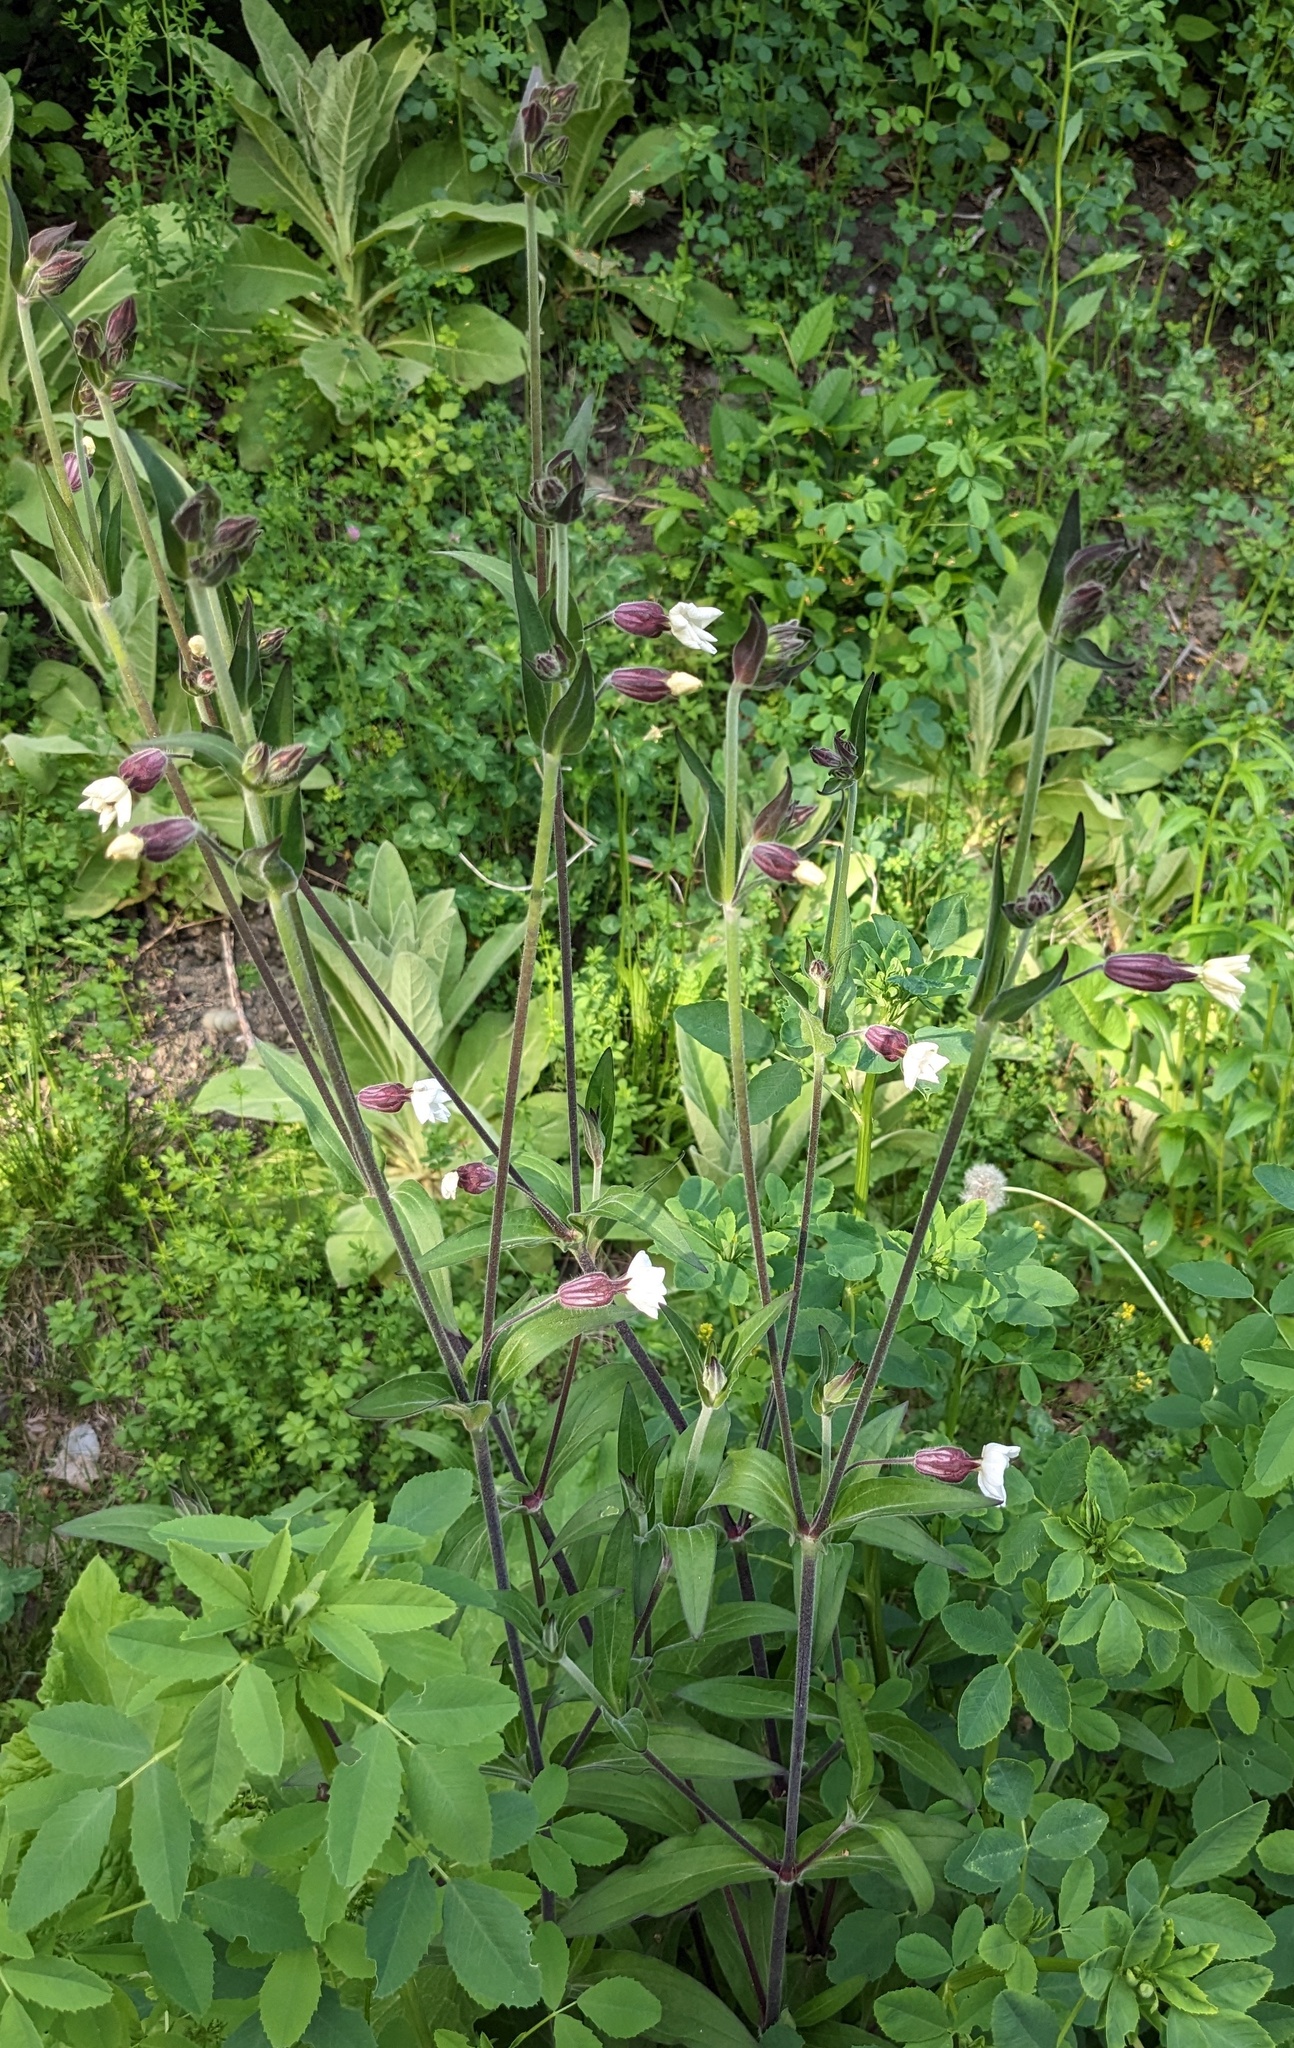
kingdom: Plantae
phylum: Tracheophyta
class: Magnoliopsida
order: Caryophyllales
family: Caryophyllaceae
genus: Silene
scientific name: Silene latifolia
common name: White campion
